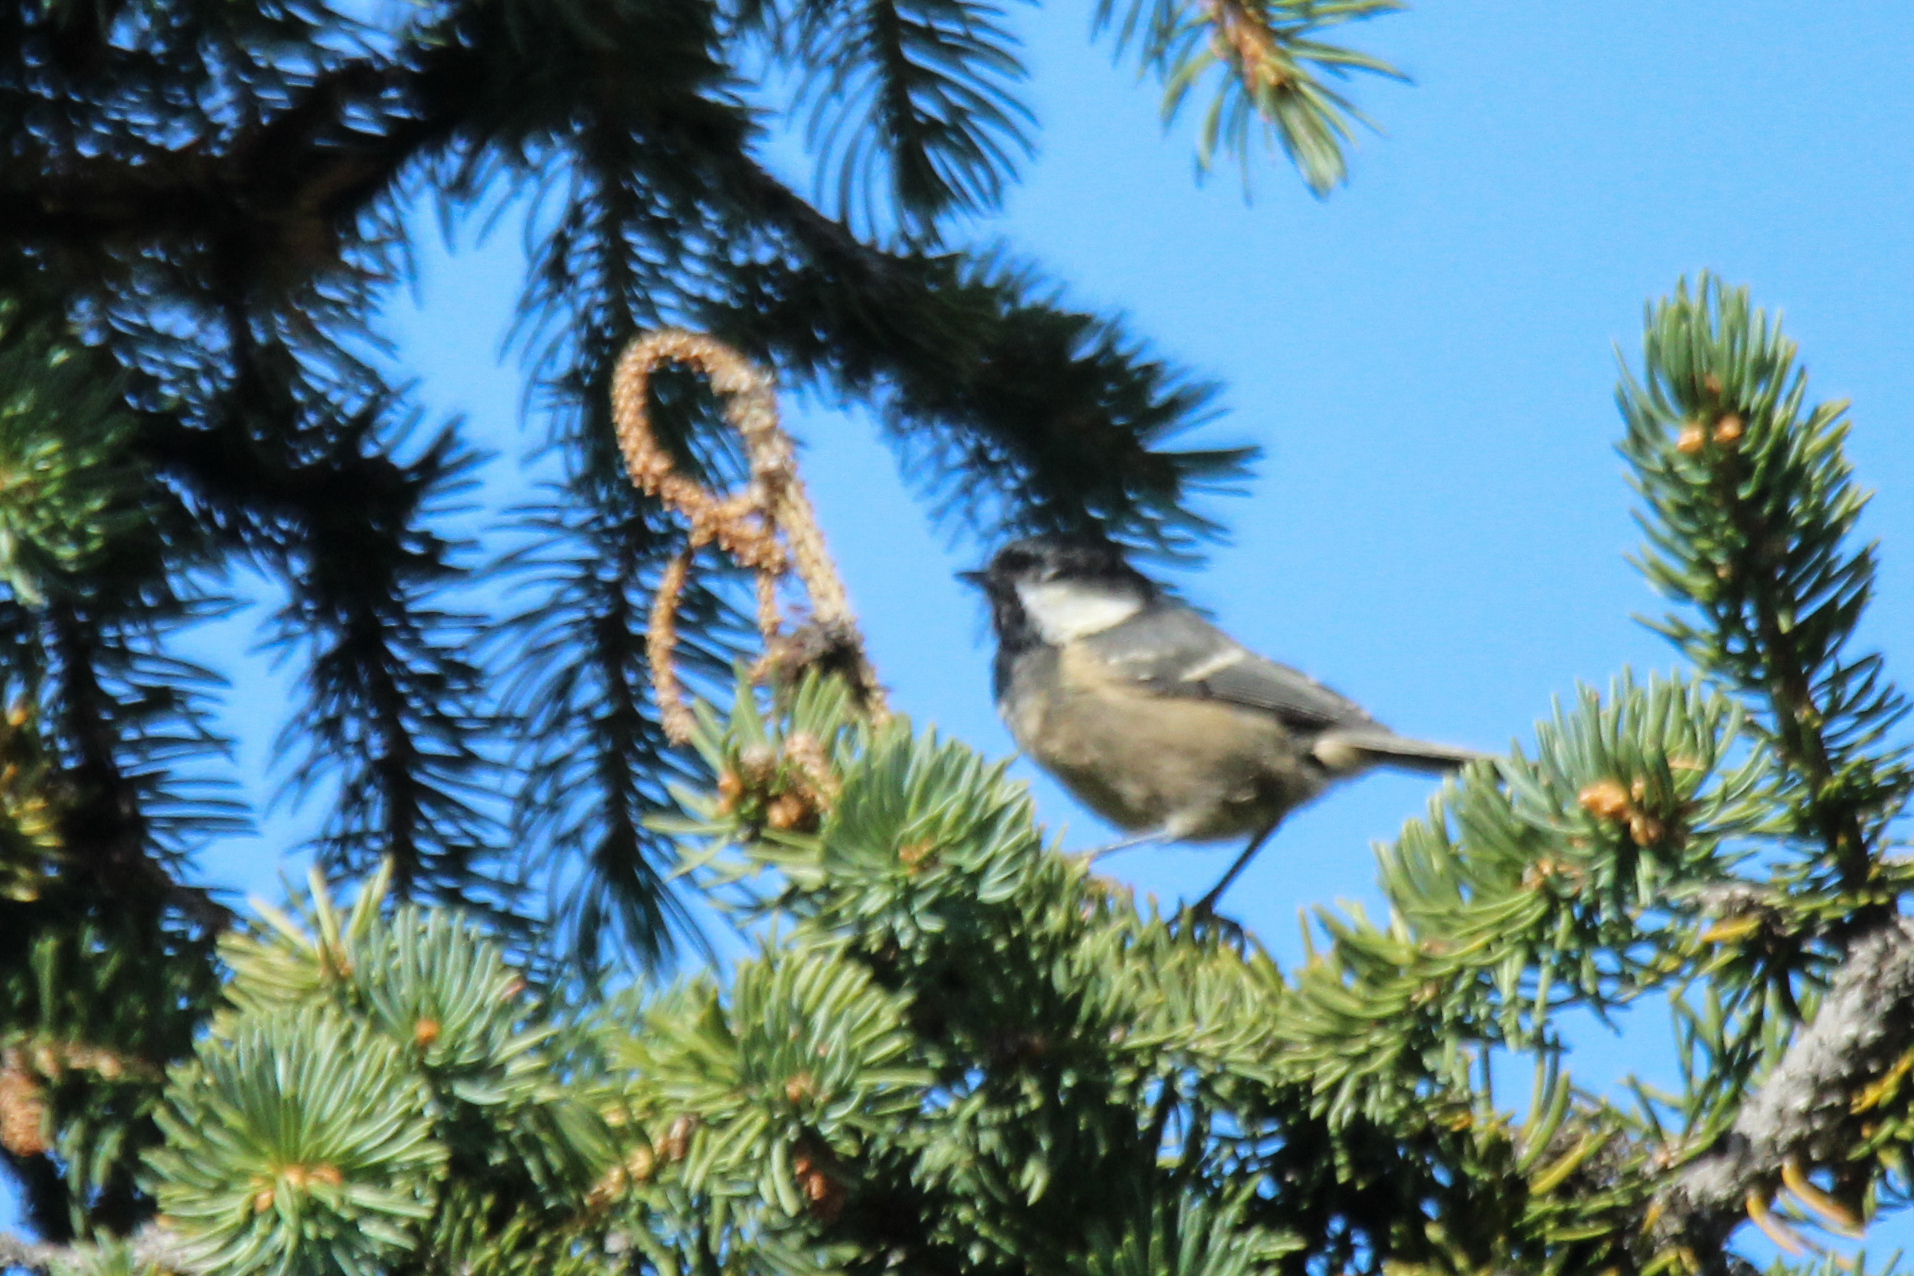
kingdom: Animalia
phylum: Chordata
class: Aves
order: Passeriformes
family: Paridae
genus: Periparus
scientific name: Periparus ater
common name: Coal tit
